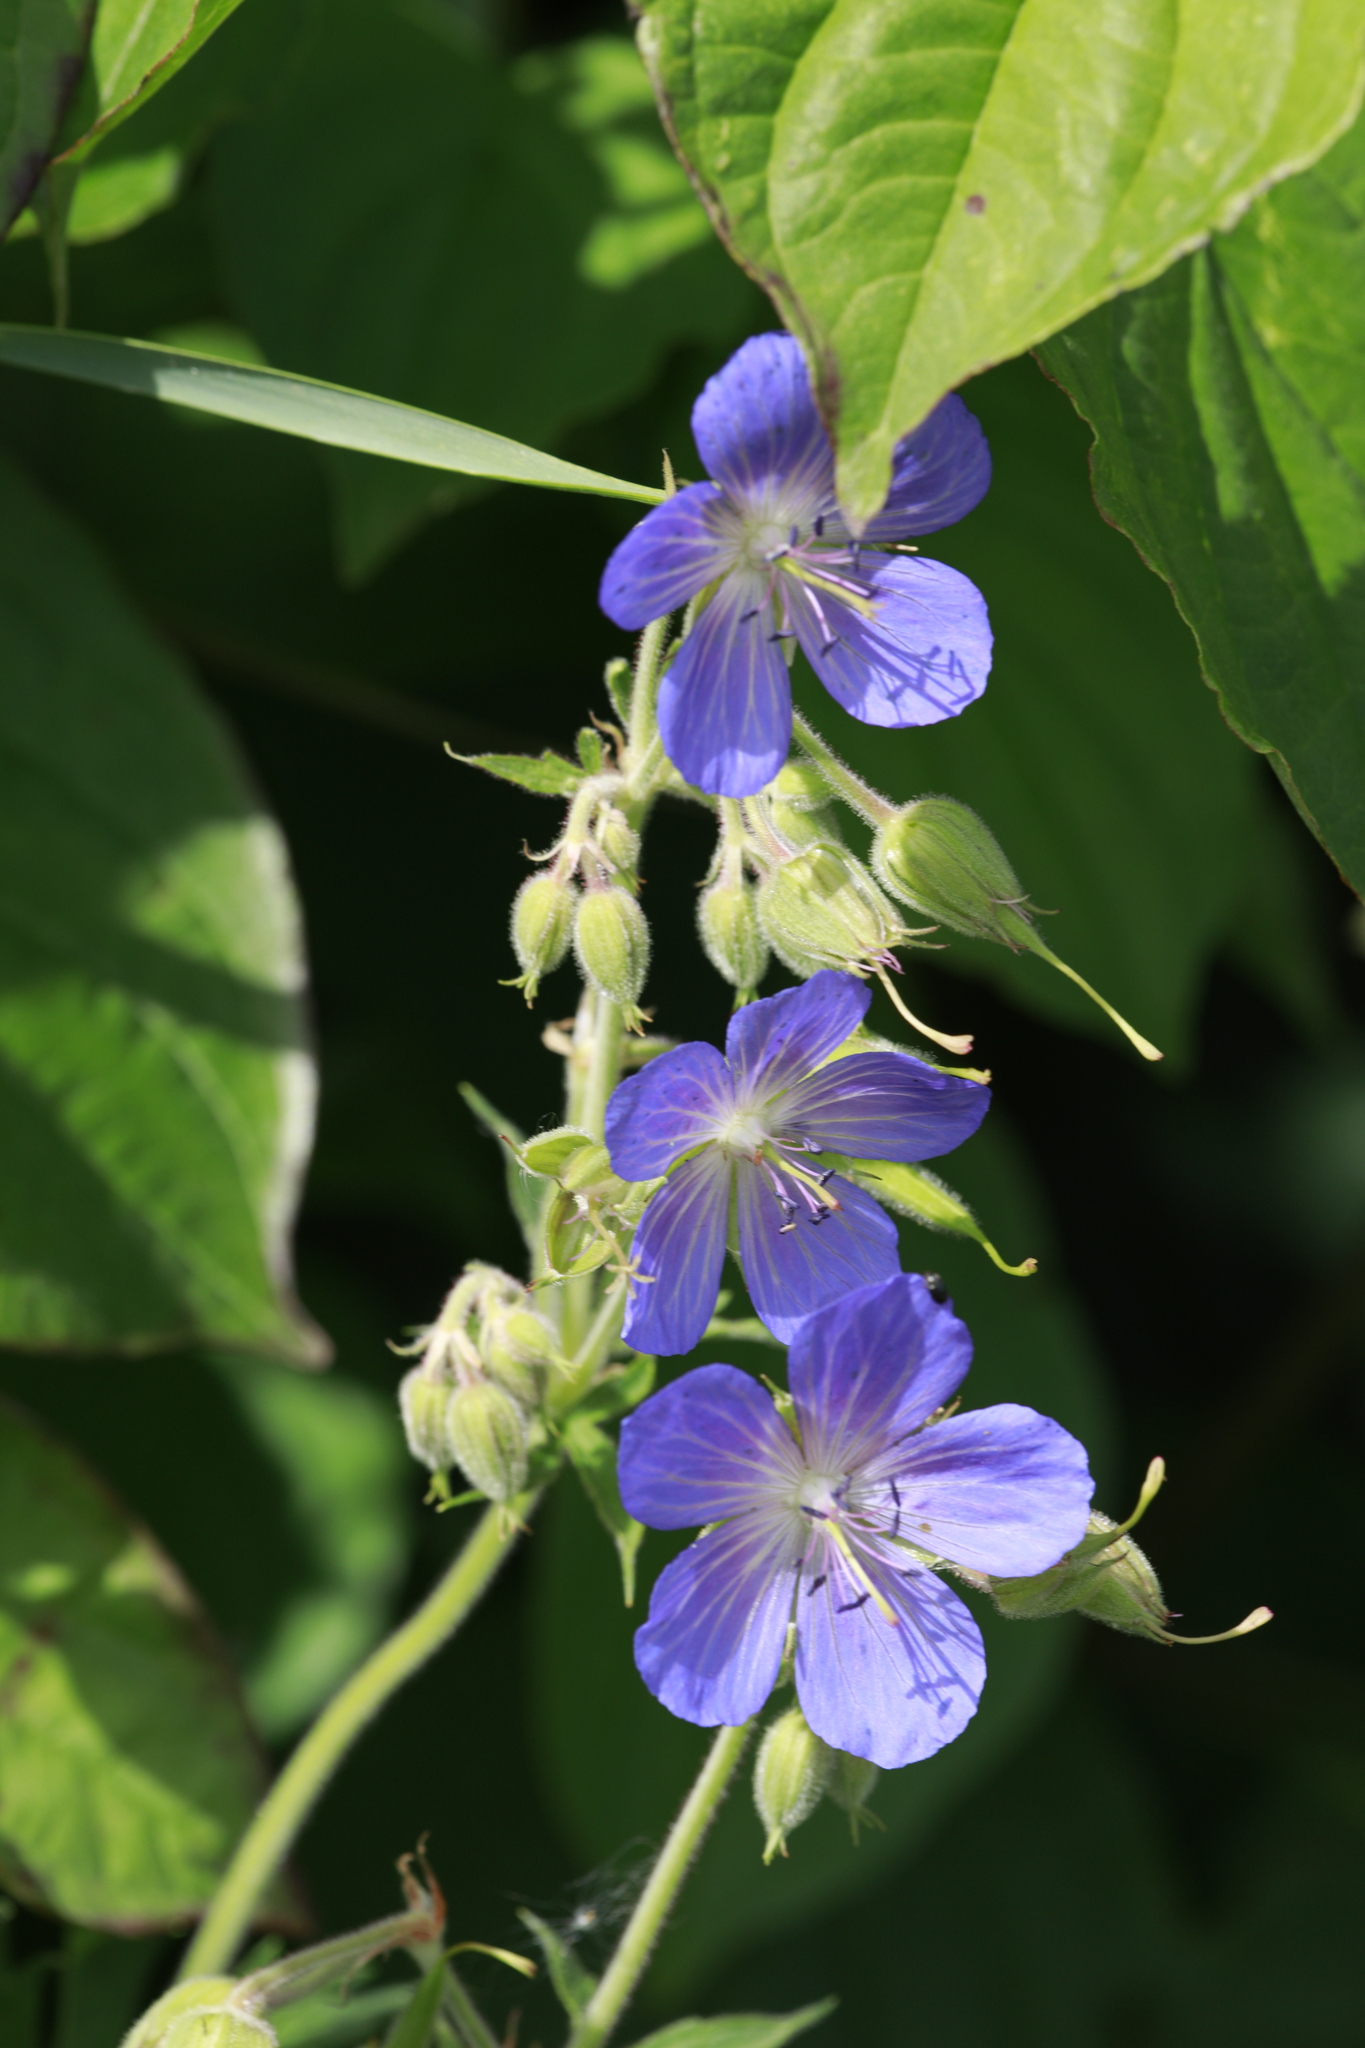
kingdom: Plantae
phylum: Tracheophyta
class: Magnoliopsida
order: Geraniales
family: Geraniaceae
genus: Geranium
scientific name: Geranium pratense
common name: Meadow crane's-bill
